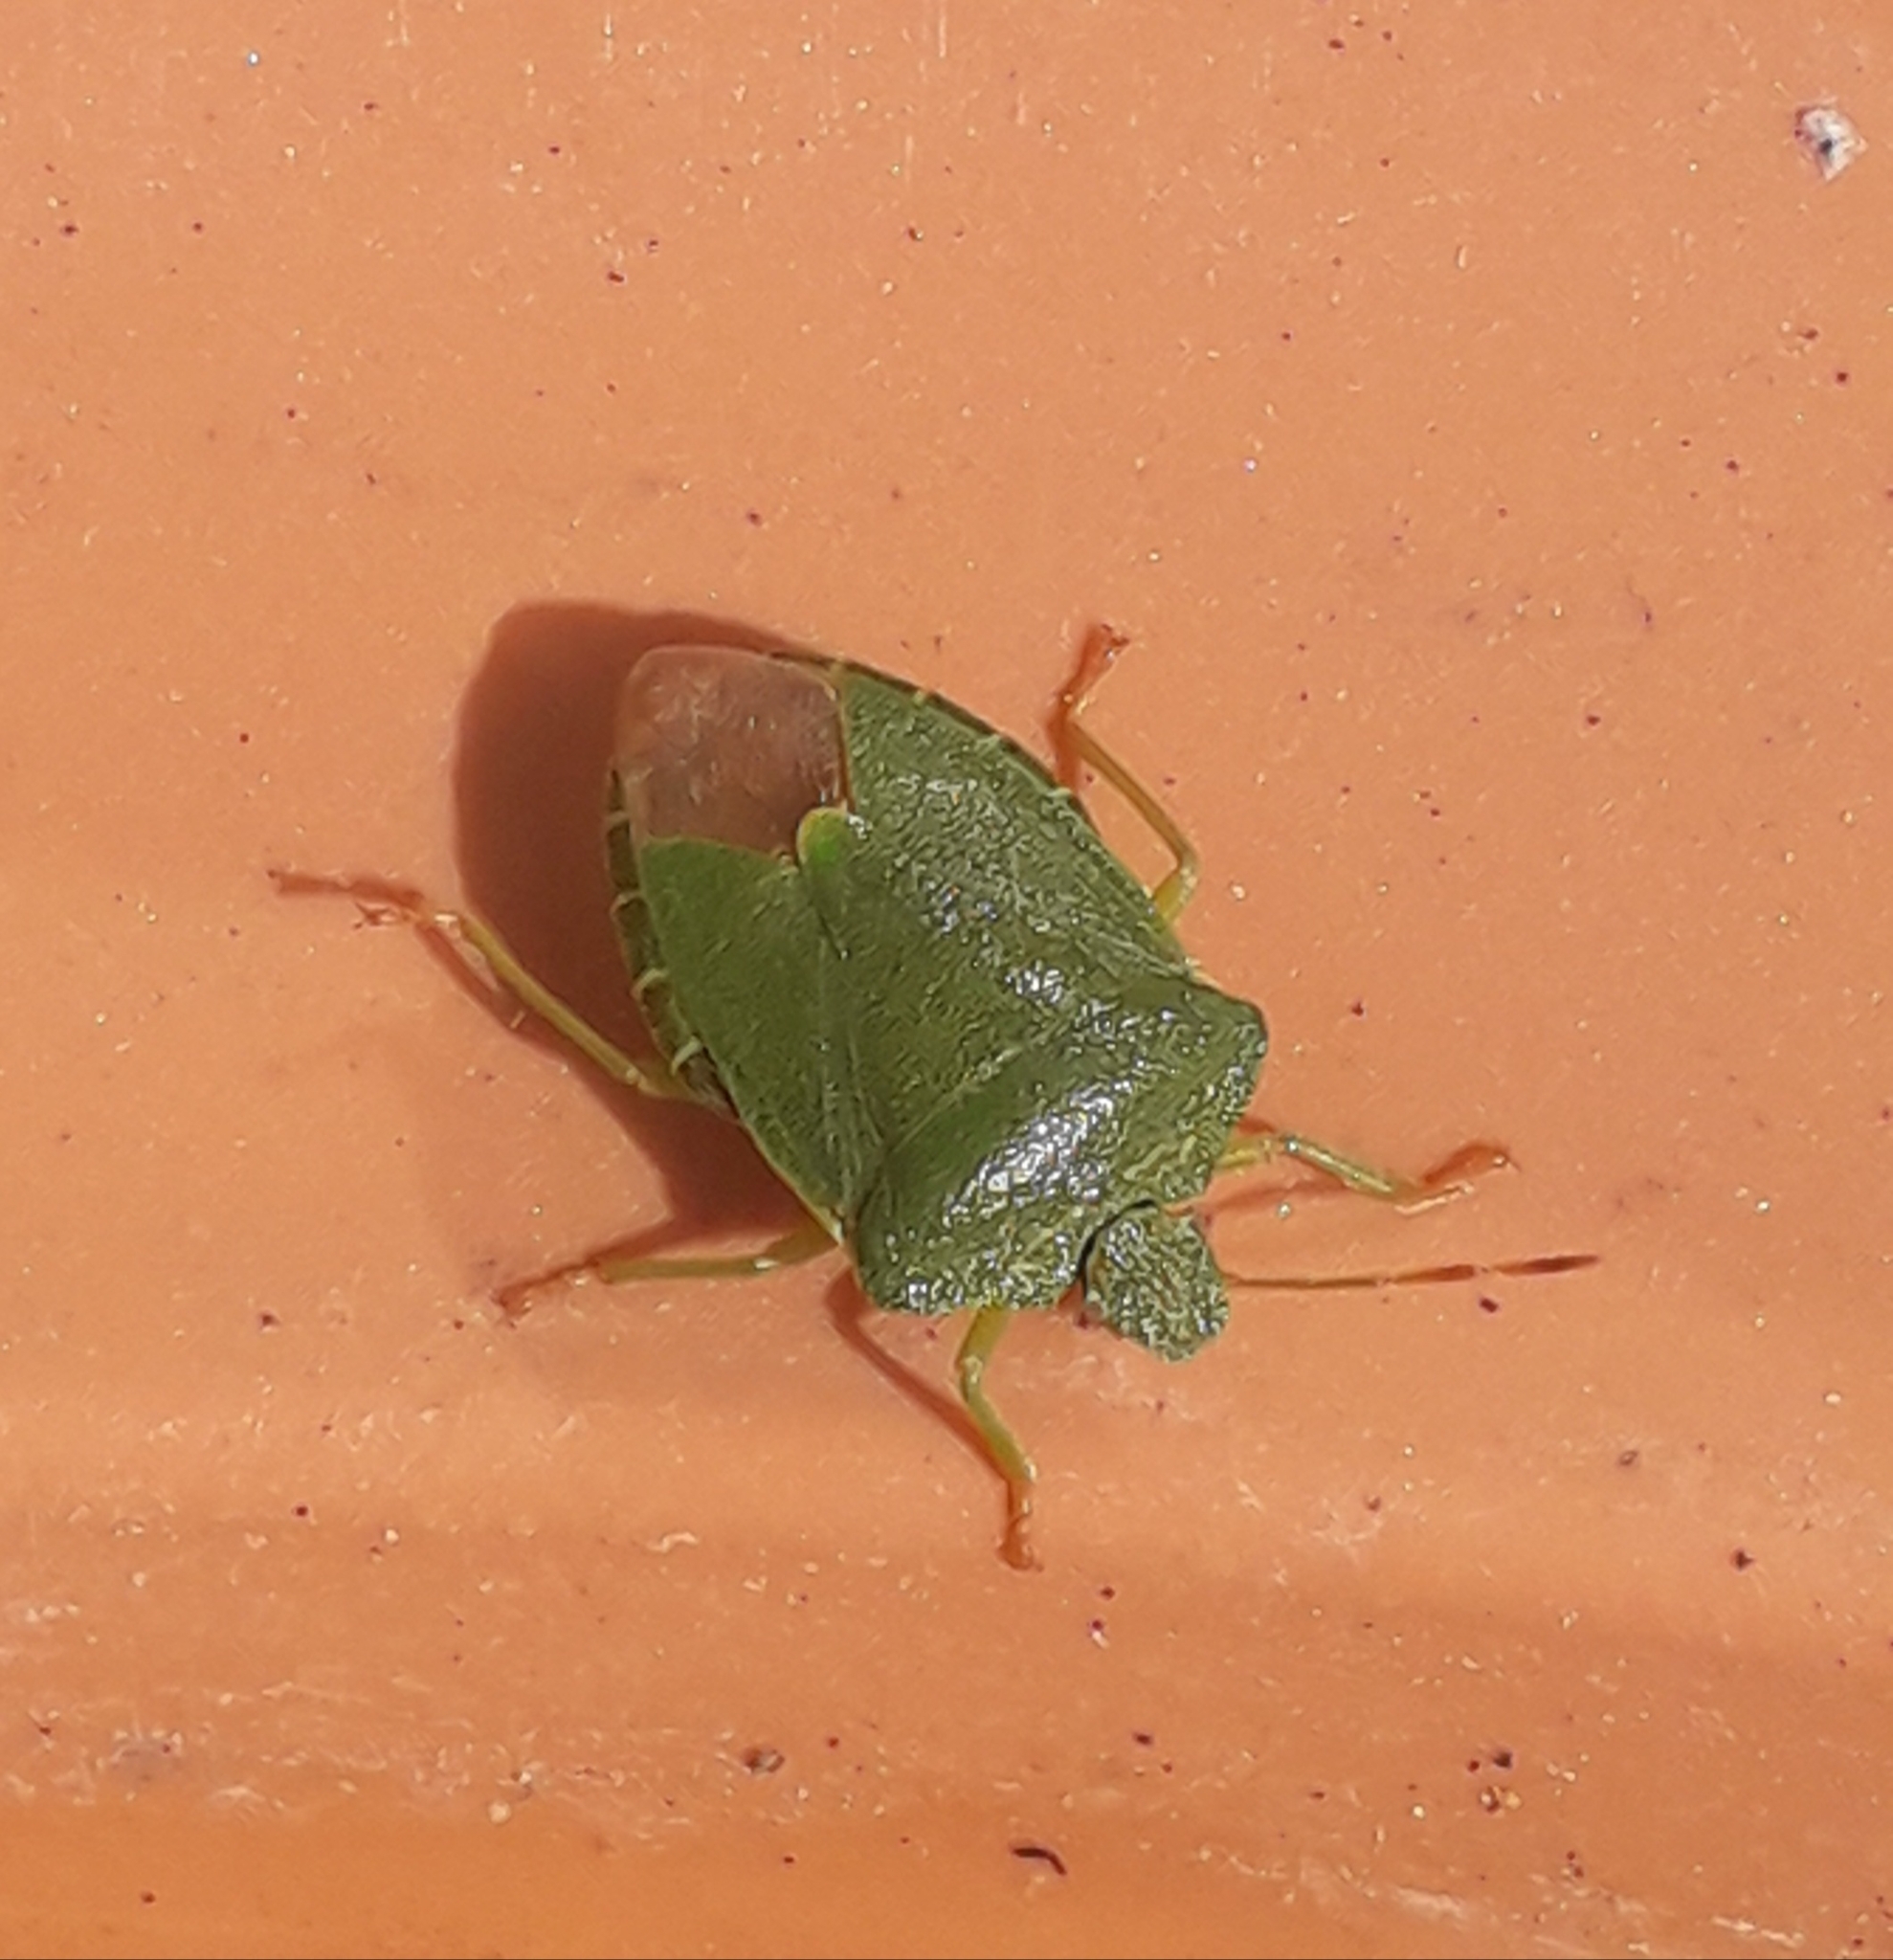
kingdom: Animalia
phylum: Arthropoda
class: Insecta
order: Hemiptera
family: Pentatomidae
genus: Palomena
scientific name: Palomena prasina
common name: Green shieldbug
